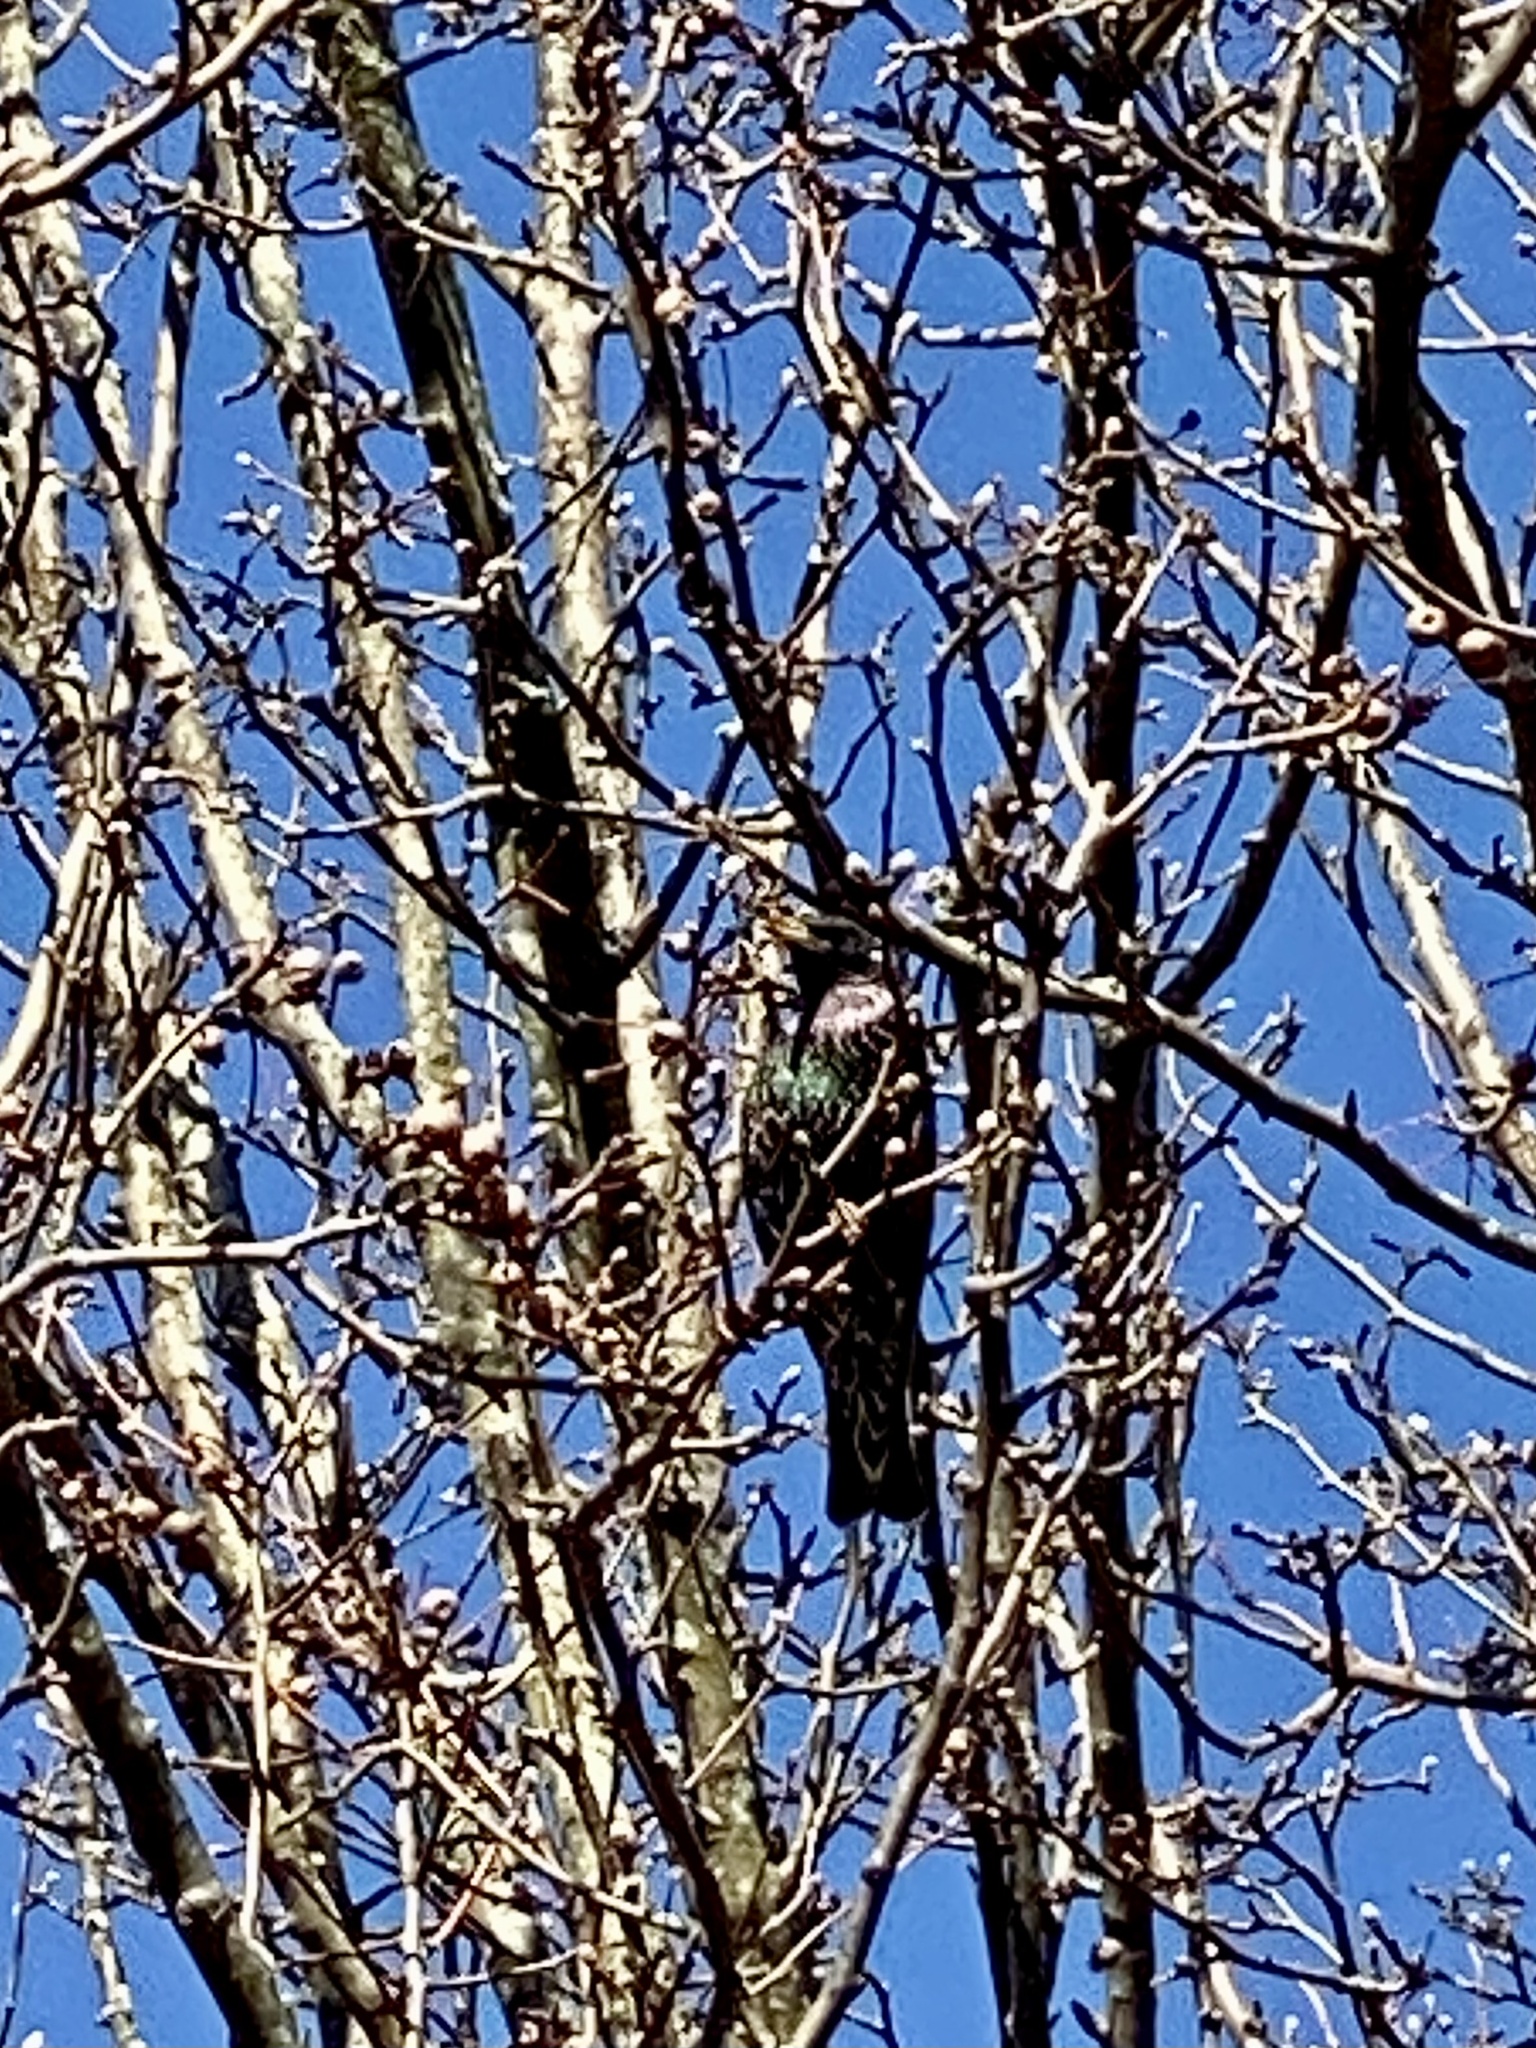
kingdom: Animalia
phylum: Chordata
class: Aves
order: Passeriformes
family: Sturnidae
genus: Sturnus
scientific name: Sturnus vulgaris
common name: Common starling
